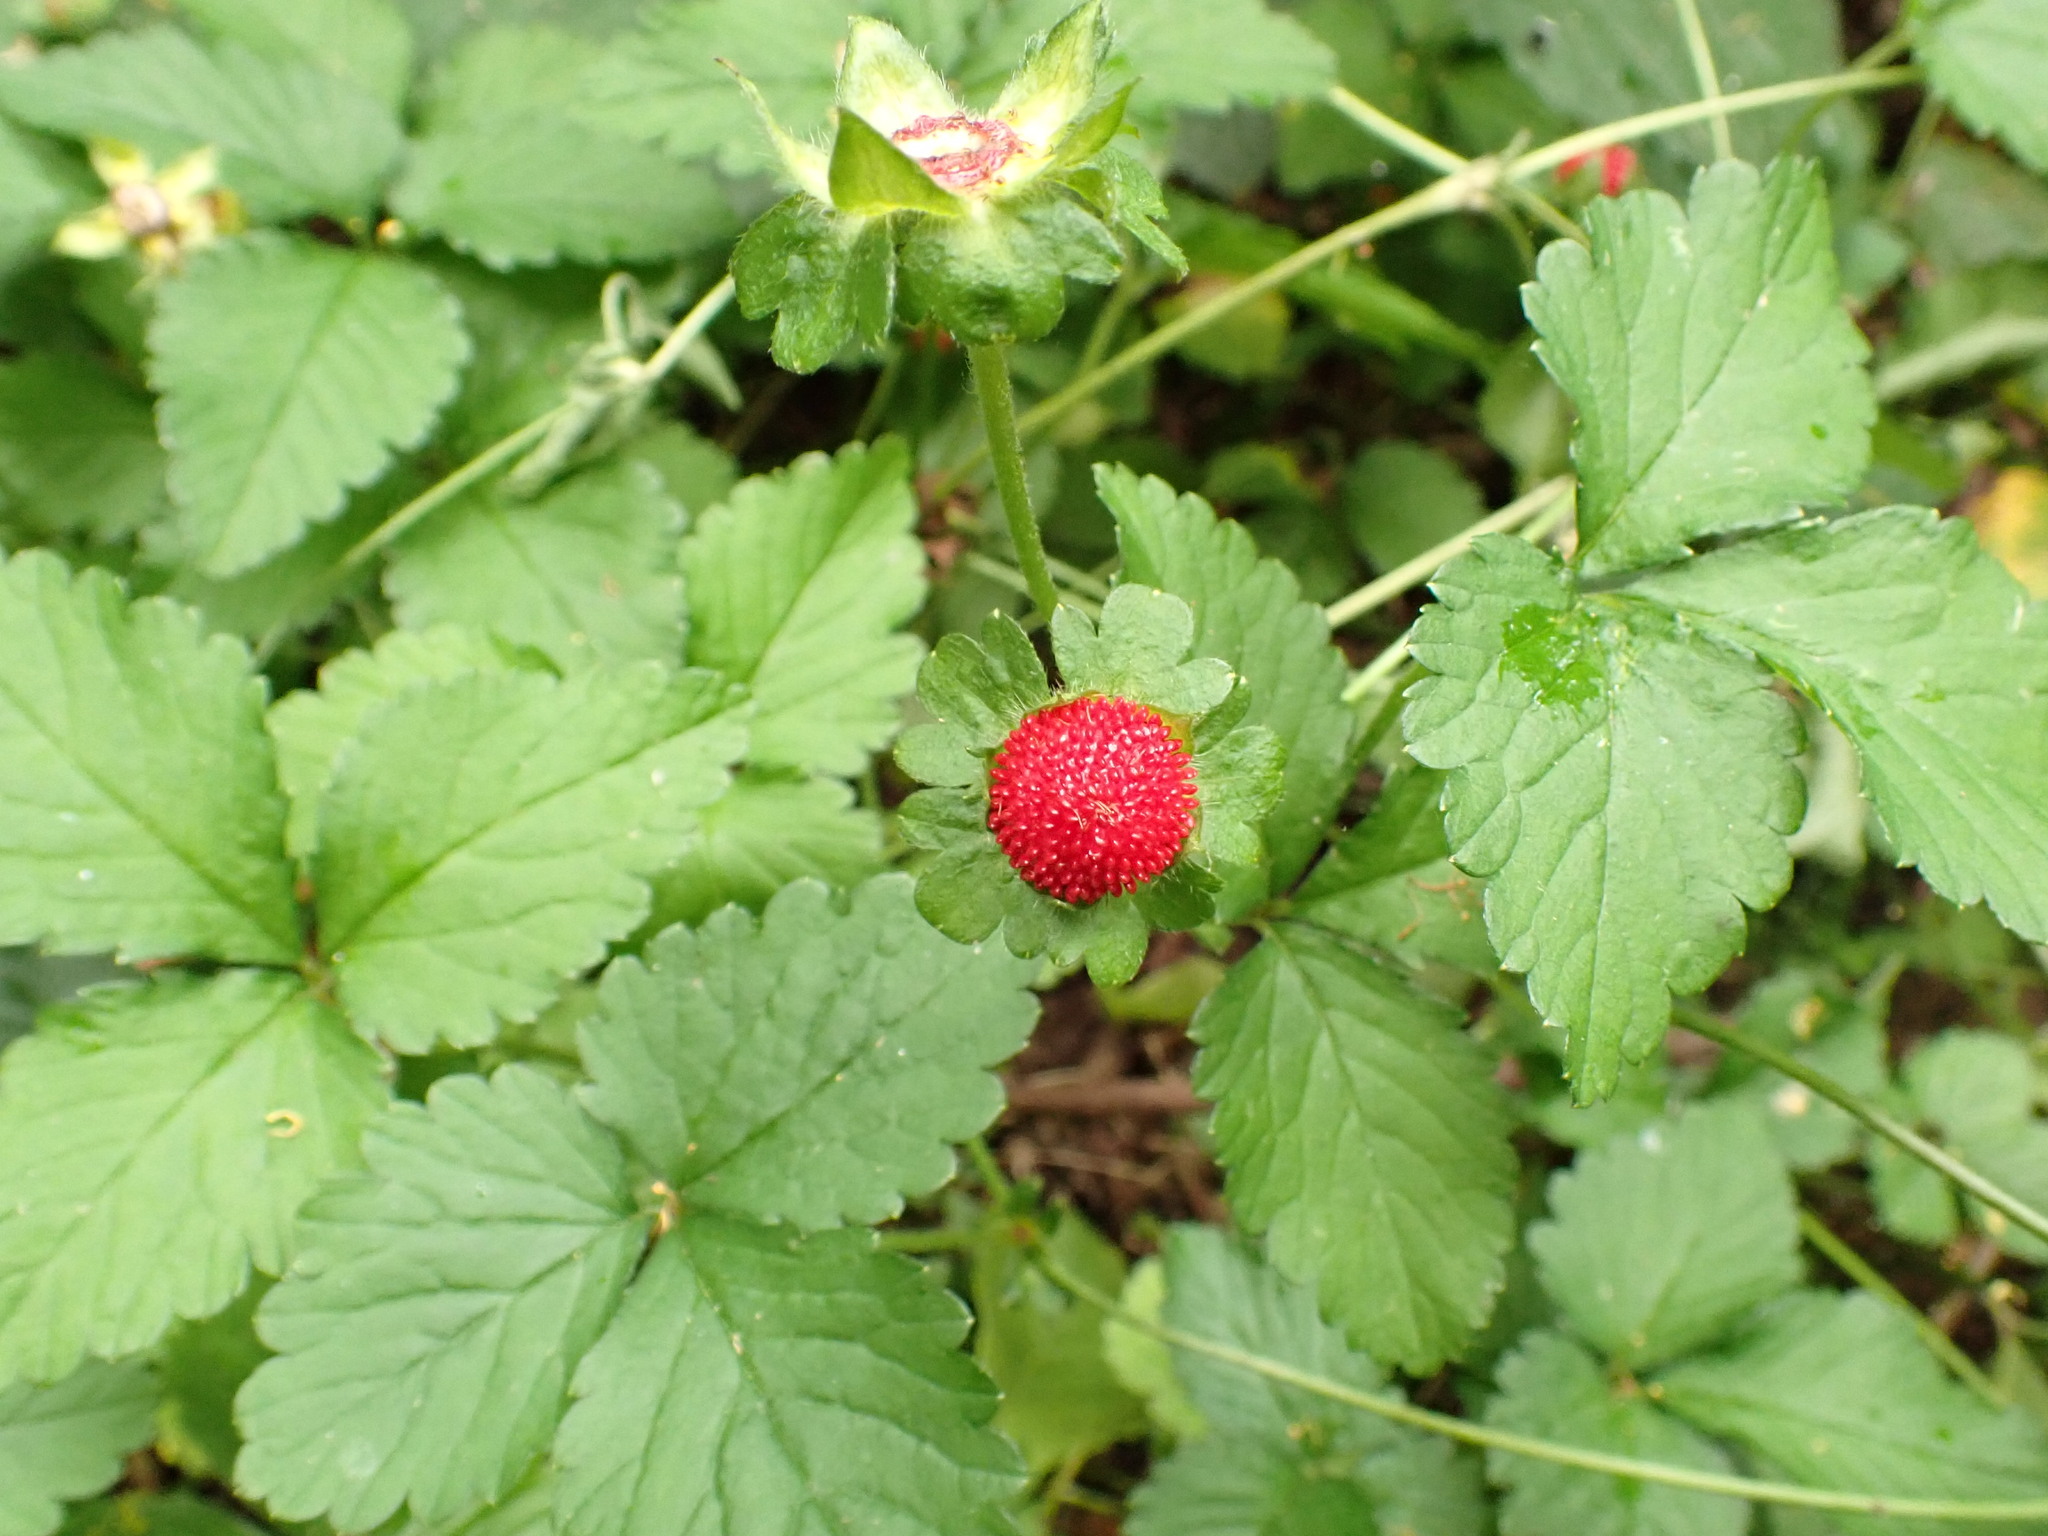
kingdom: Plantae
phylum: Tracheophyta
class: Magnoliopsida
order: Rosales
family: Rosaceae
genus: Potentilla
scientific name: Potentilla indica
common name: Yellow-flowered strawberry
